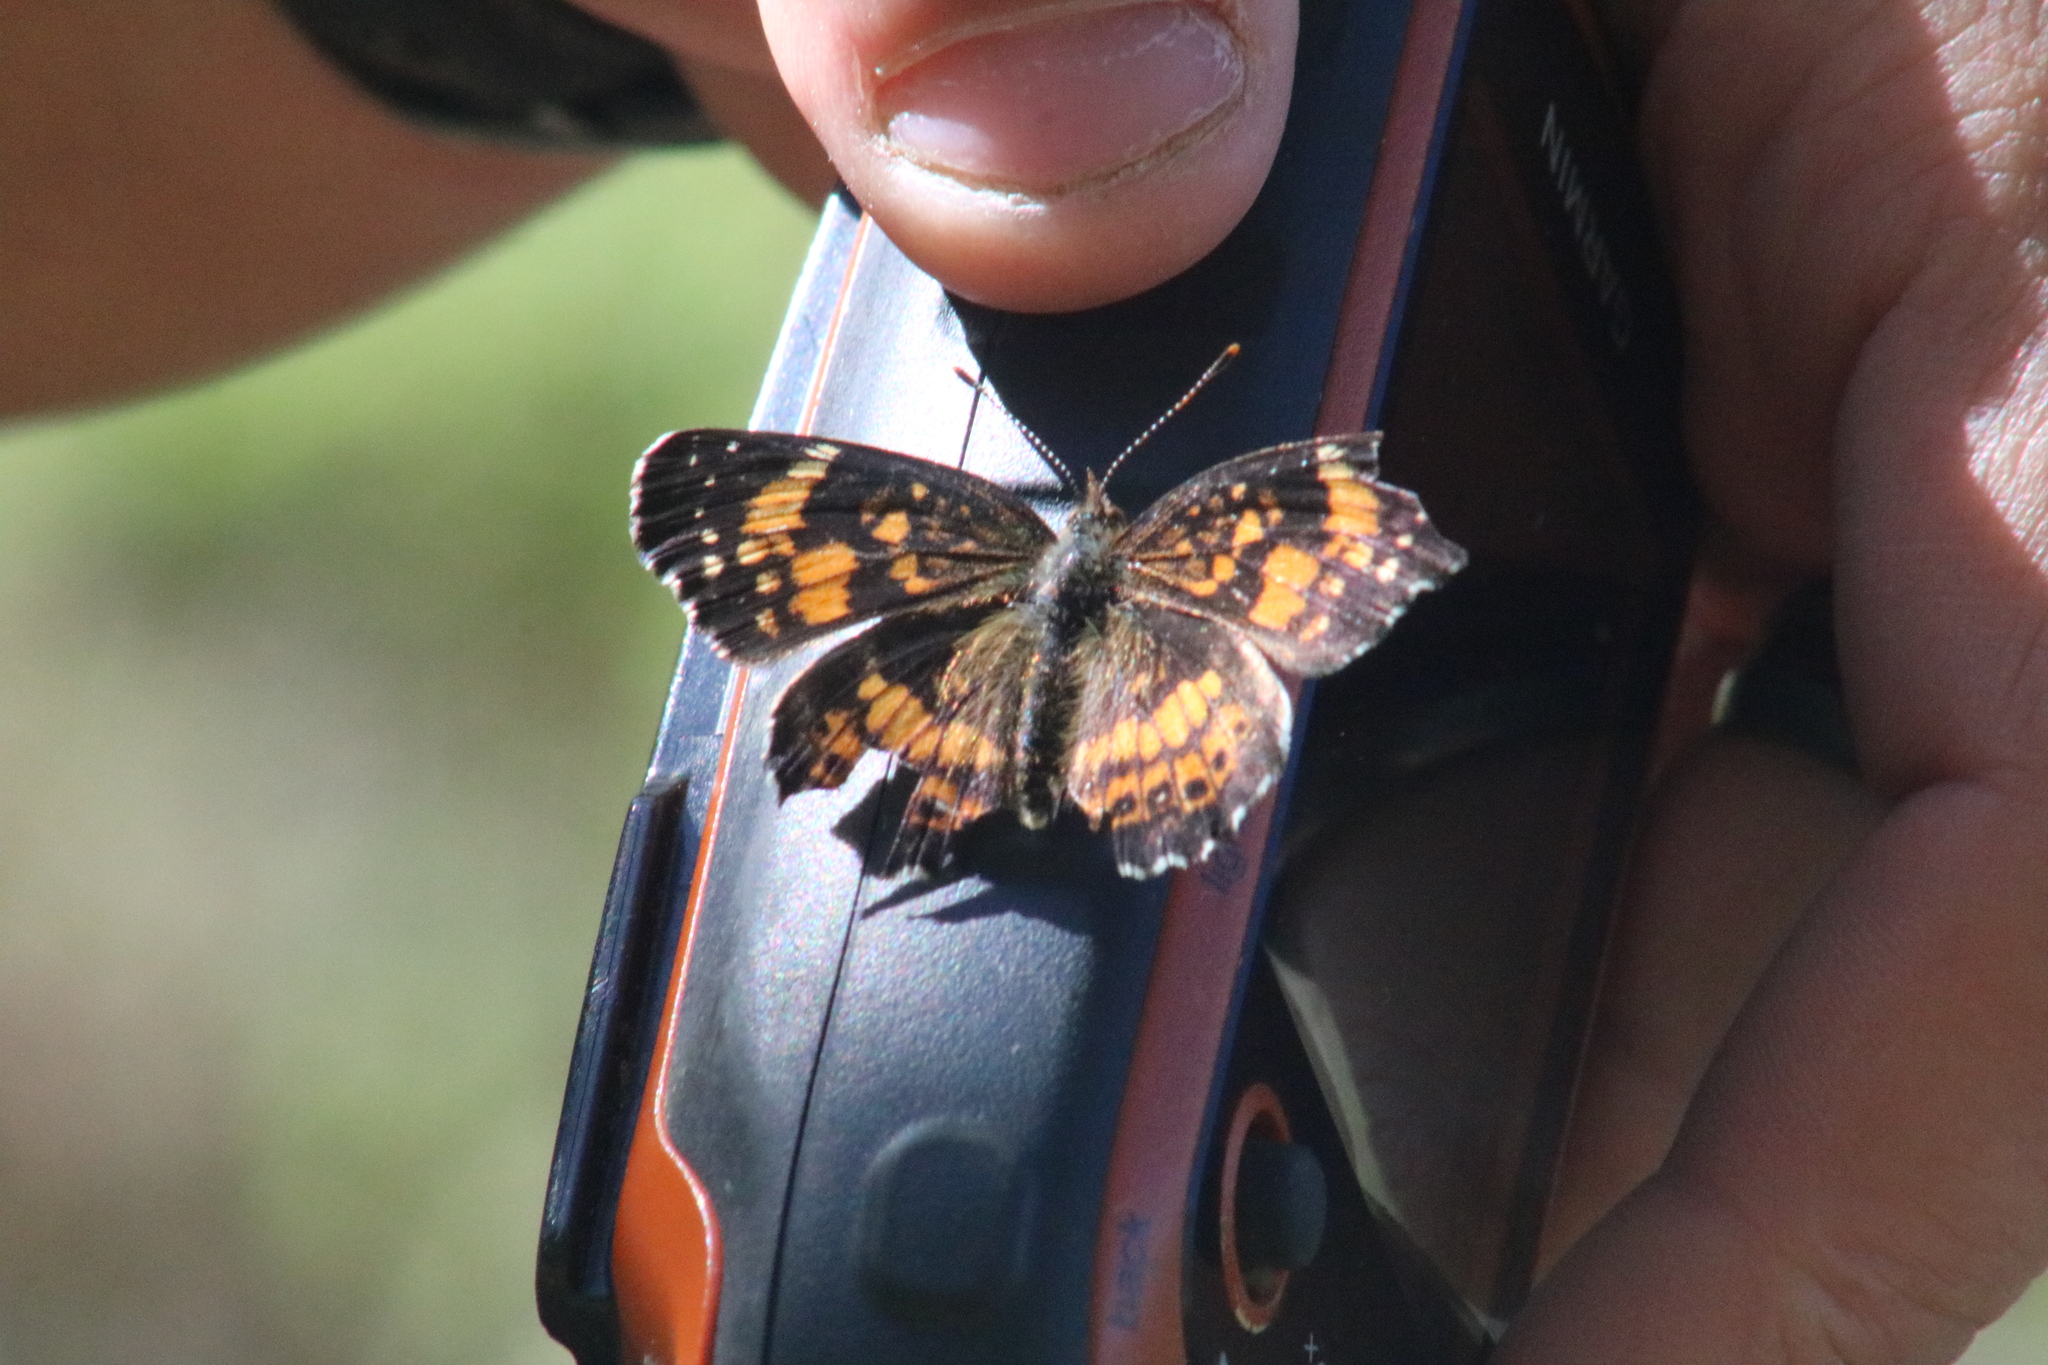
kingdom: Animalia
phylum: Arthropoda
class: Insecta
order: Lepidoptera
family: Nymphalidae
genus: Chlosyne
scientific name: Chlosyne nycteis
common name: Silvery checkerspot
